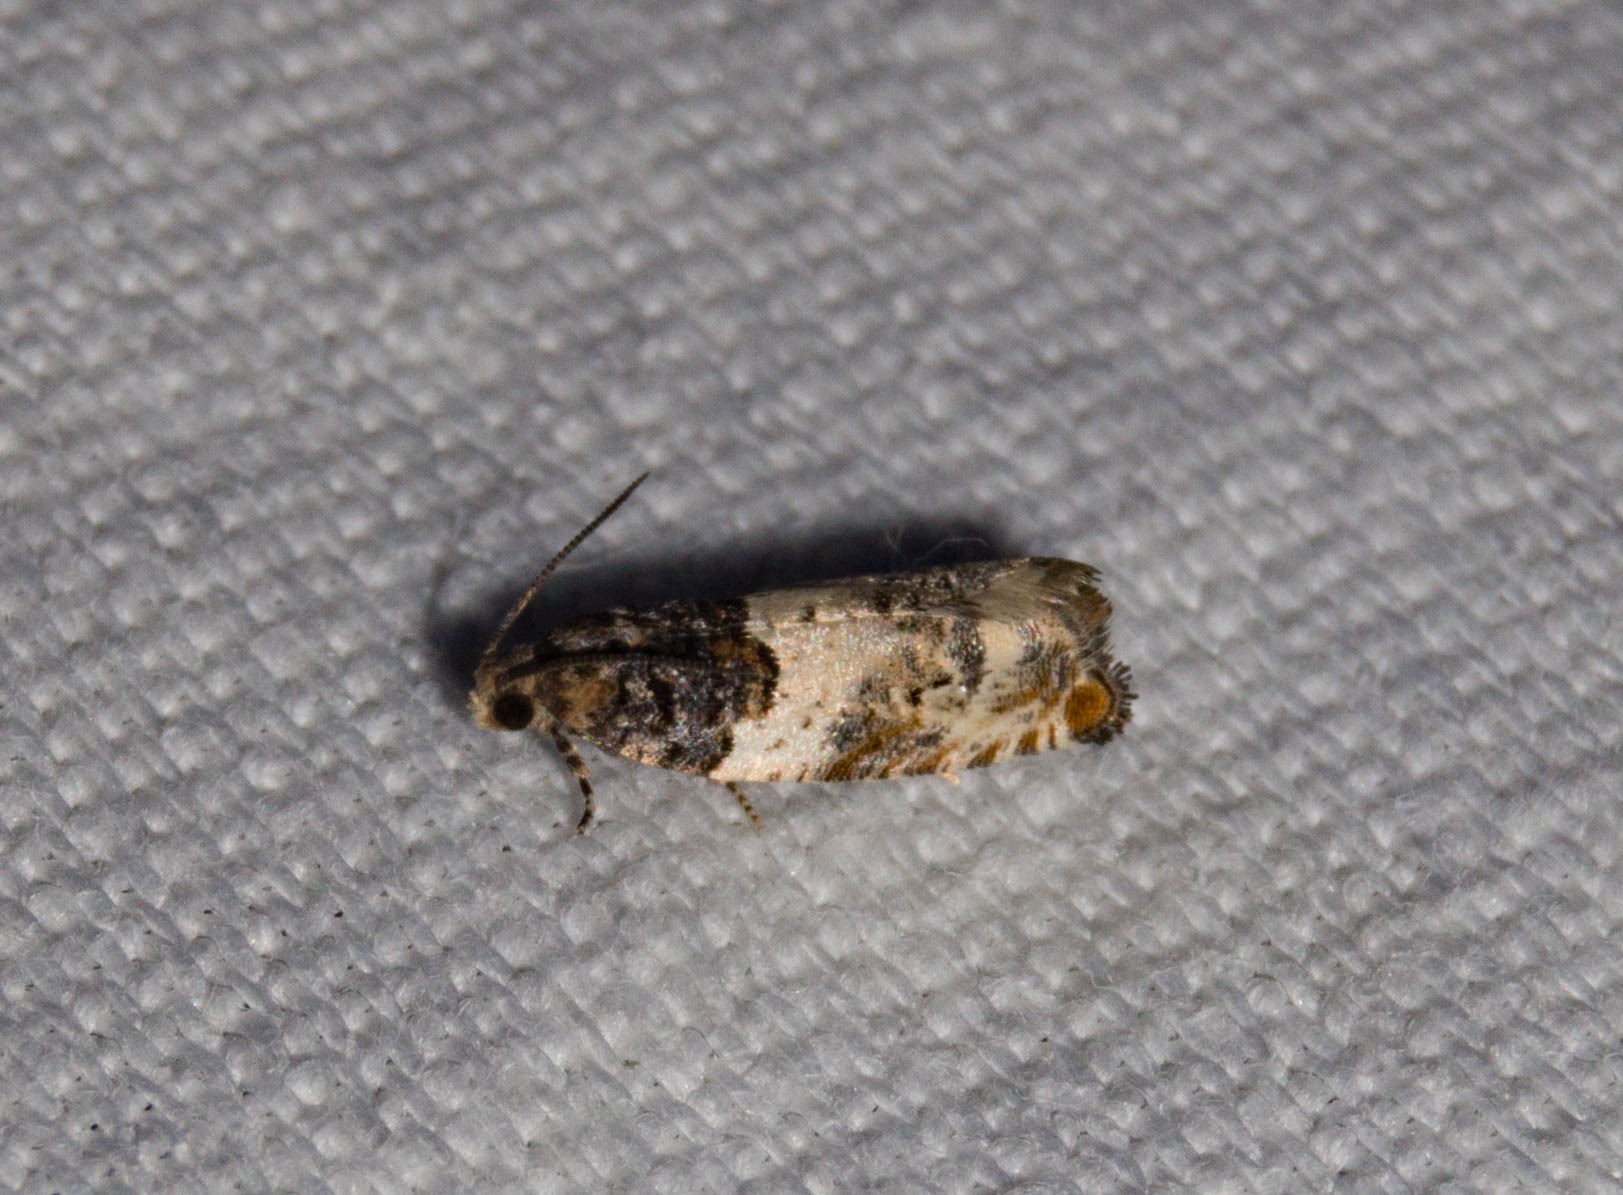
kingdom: Animalia
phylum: Arthropoda
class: Insecta
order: Lepidoptera
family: Tortricidae
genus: Gypsonoma
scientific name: Gypsonoma dealbana
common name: Common cloaked shoot
